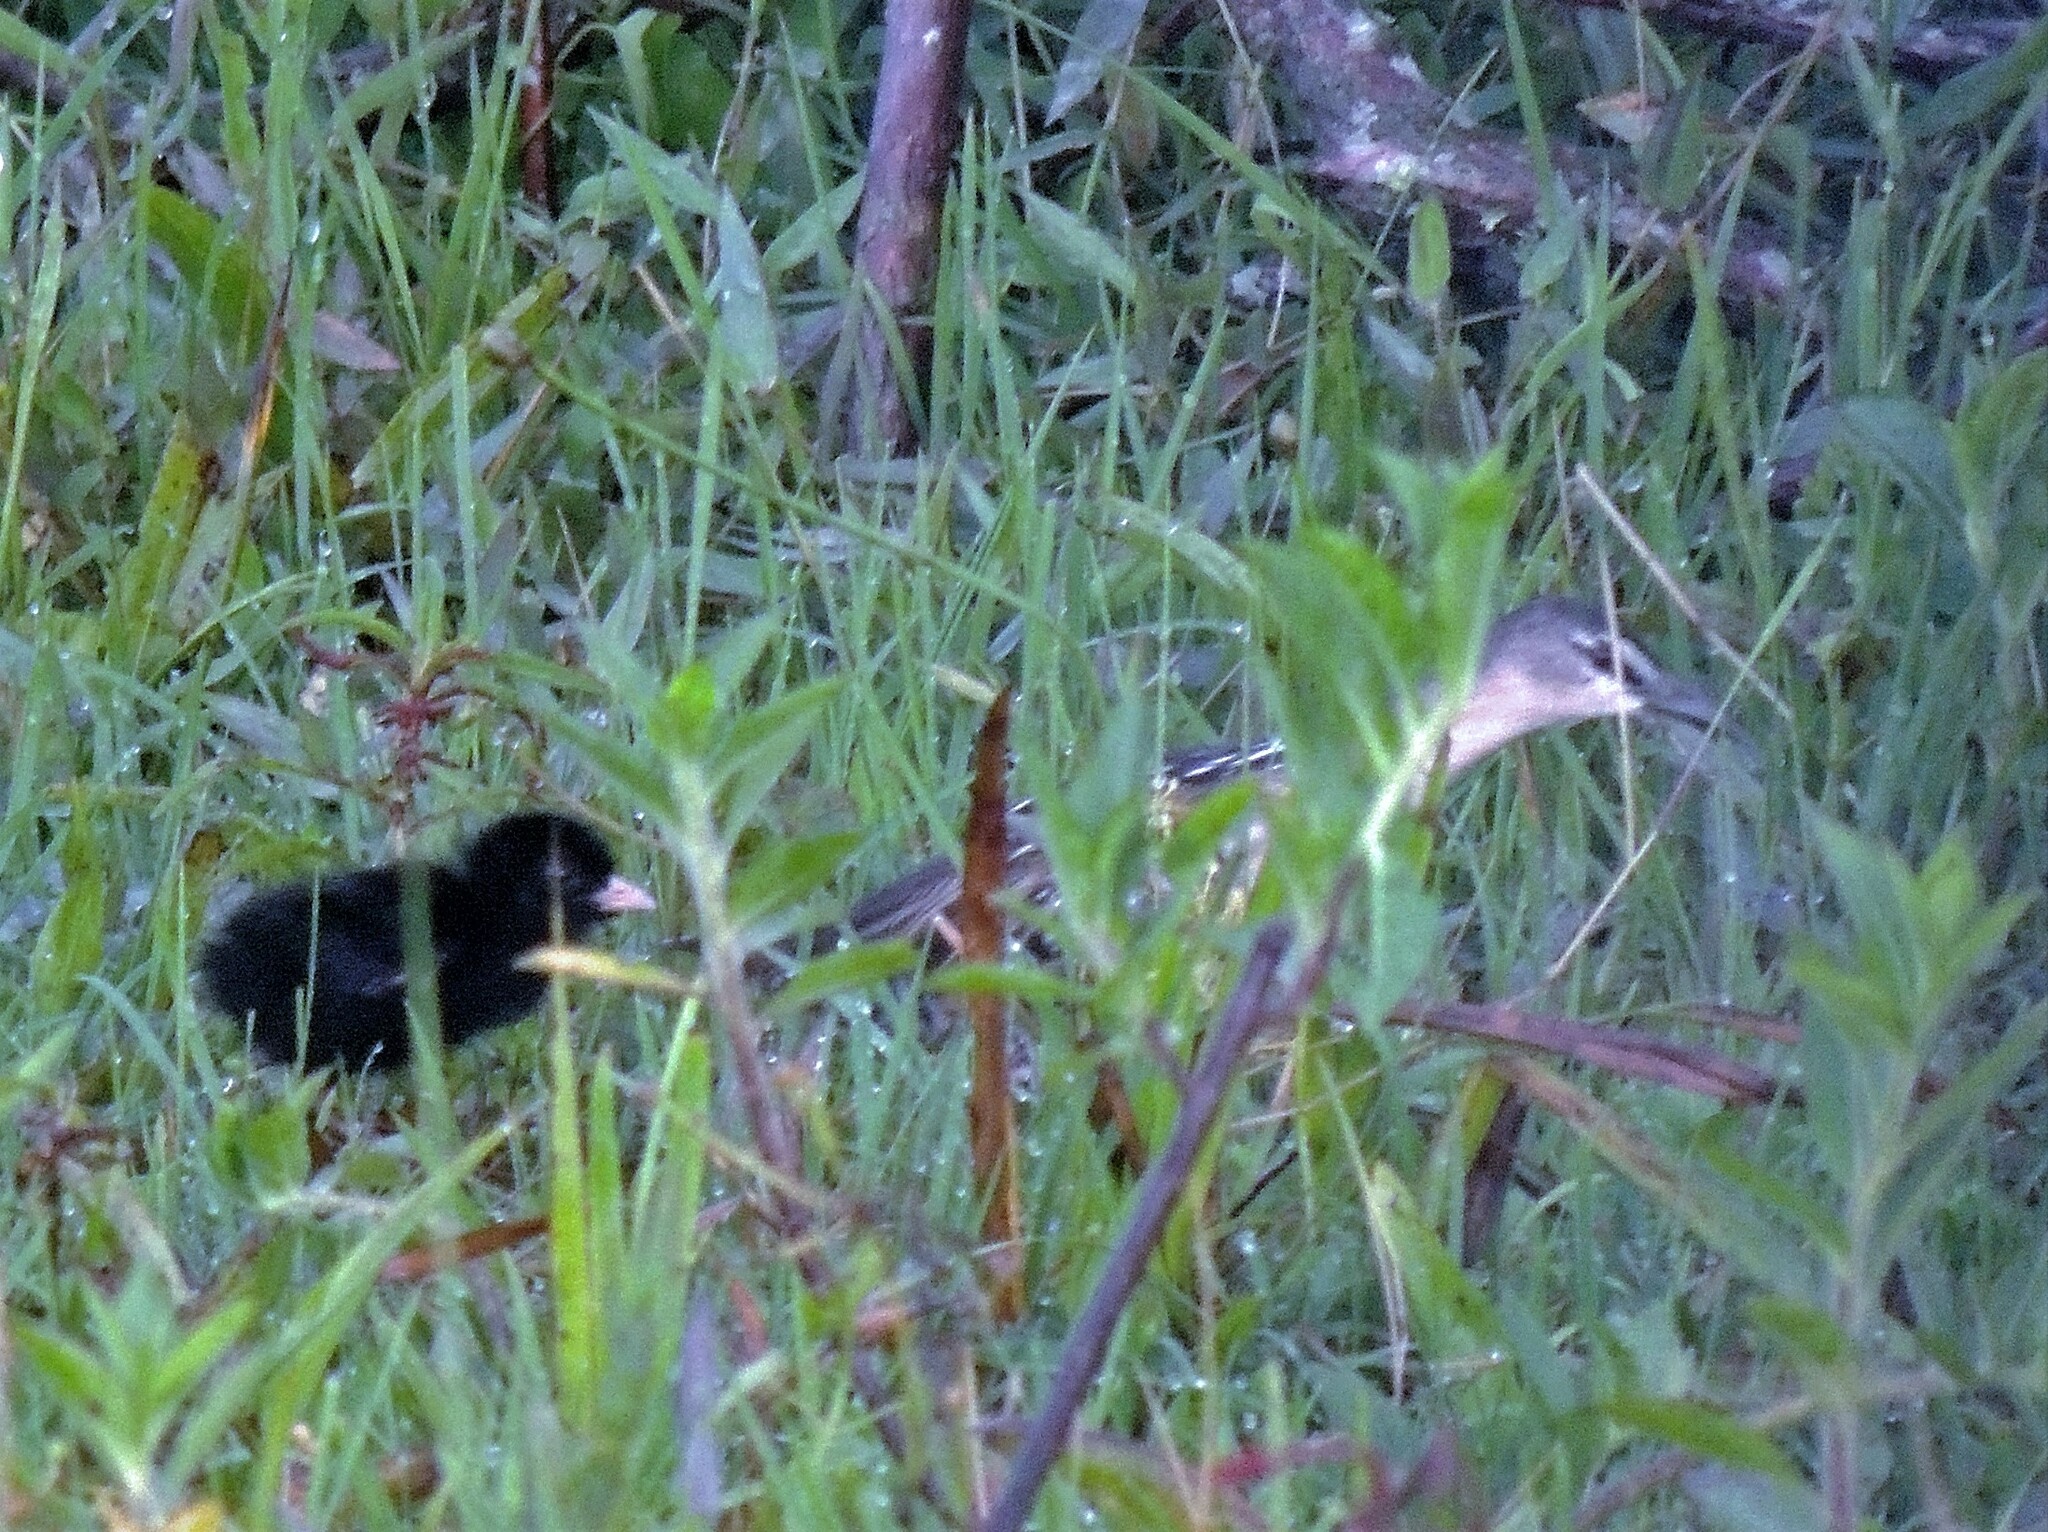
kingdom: Animalia
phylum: Chordata
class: Aves
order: Gruiformes
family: Rallidae
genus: Porzana
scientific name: Porzana flaviventer
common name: Yellow-breasted crake
